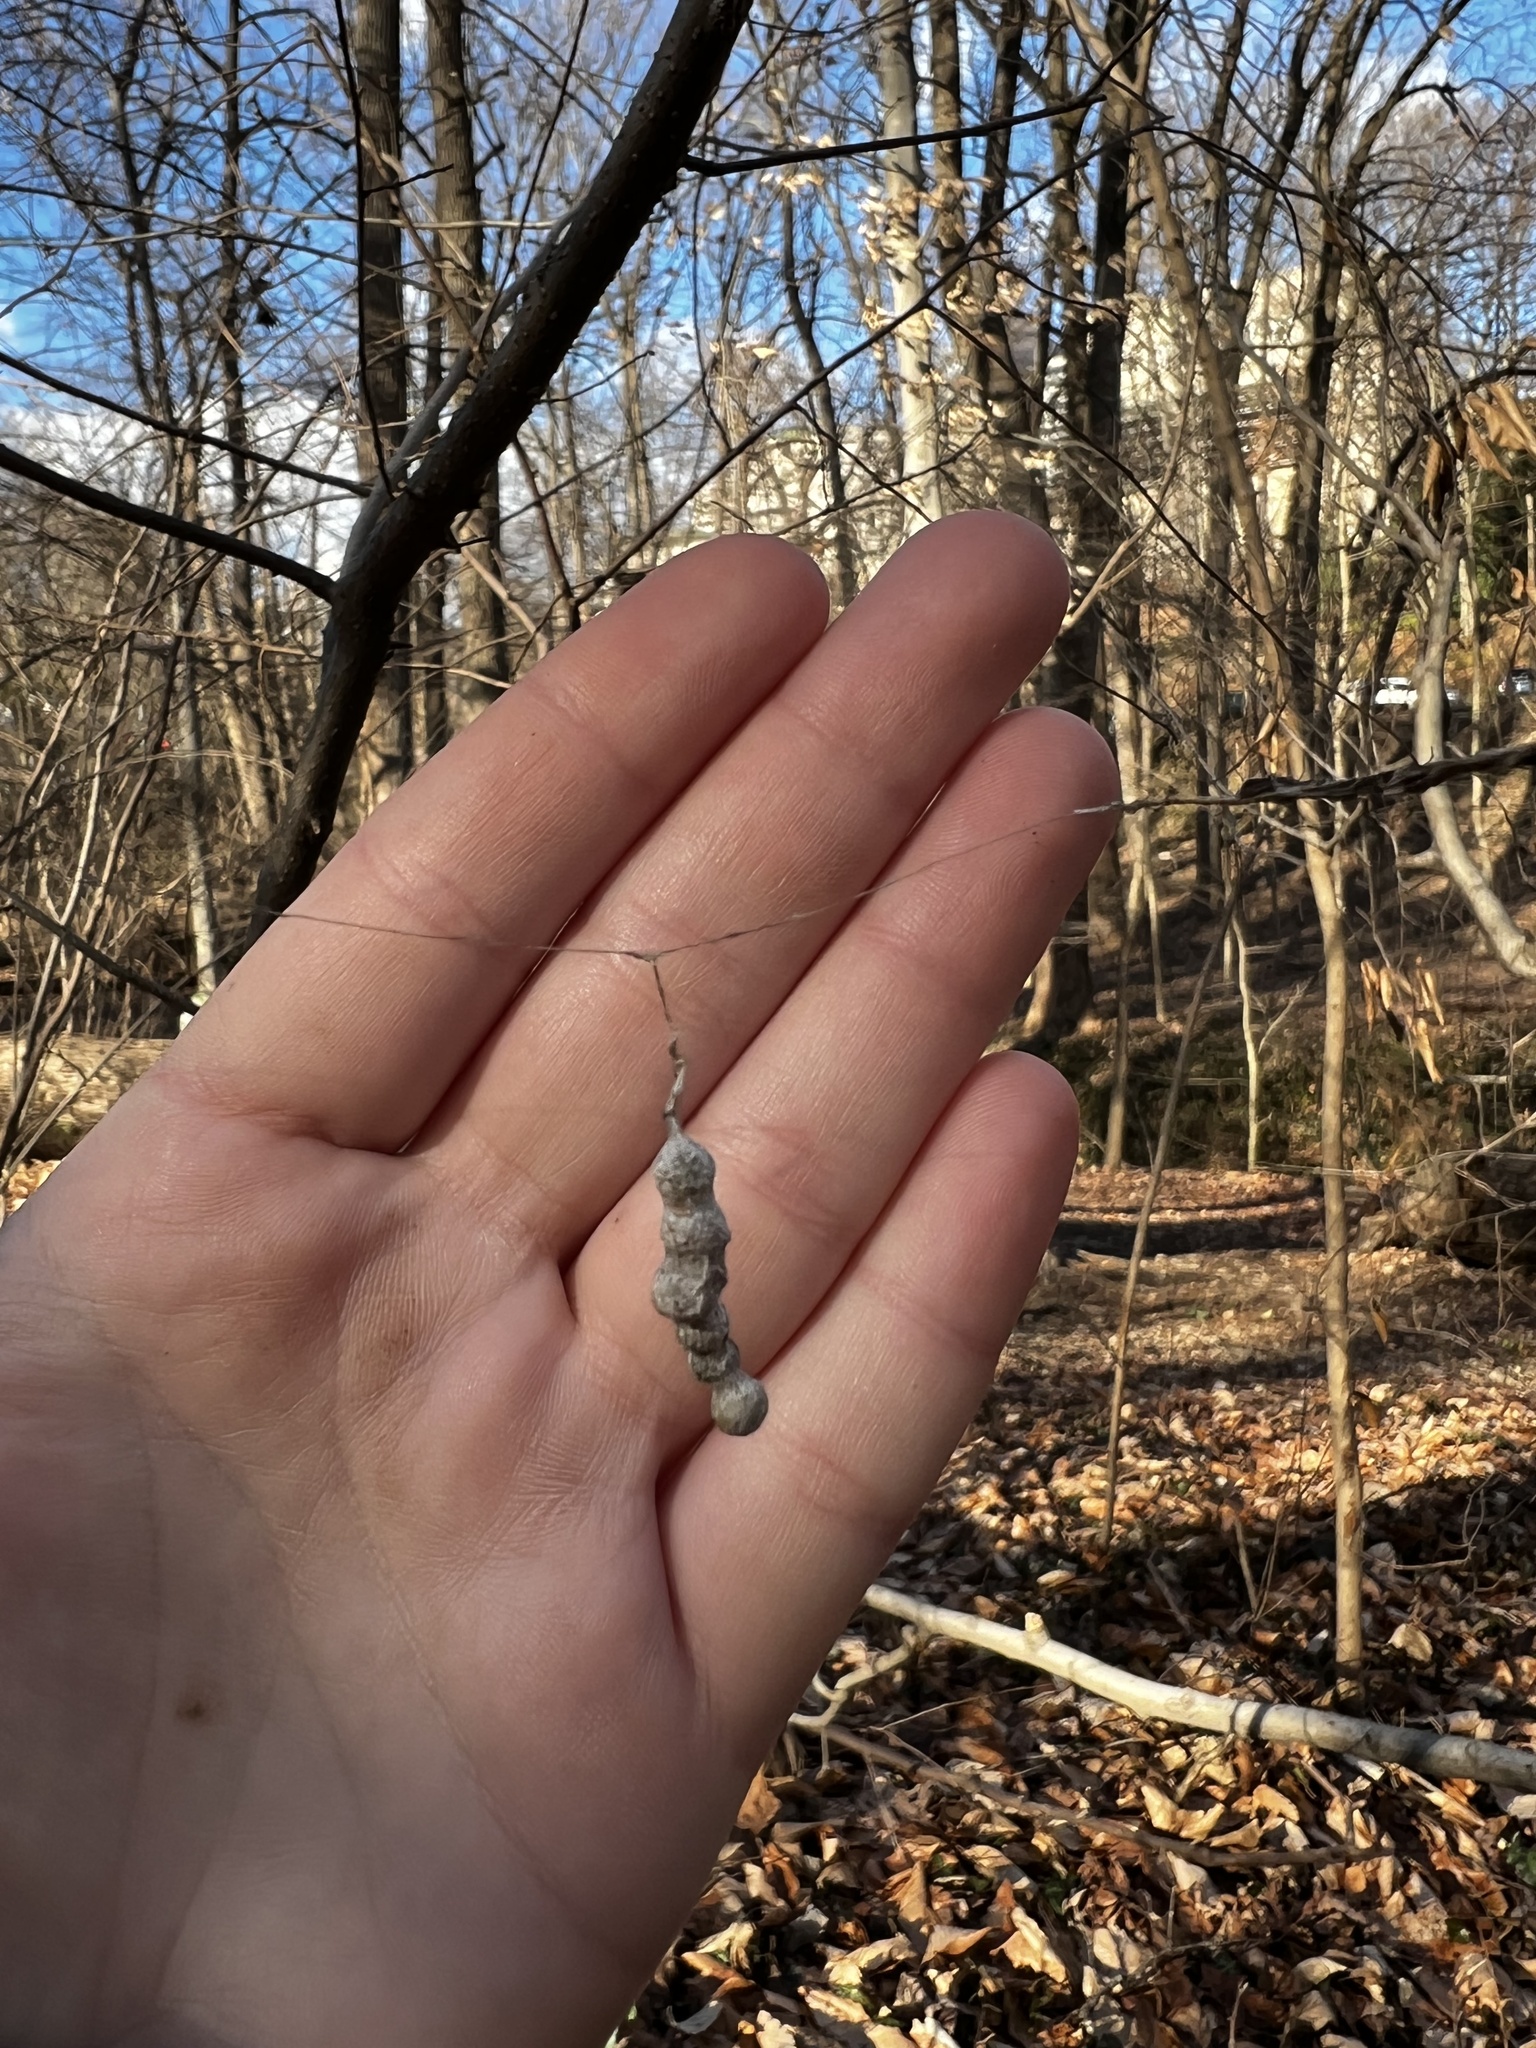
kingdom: Animalia
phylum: Arthropoda
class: Arachnida
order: Araneae
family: Araneidae
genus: Mecynogea
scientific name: Mecynogea lemniscata
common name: Orb weavers
